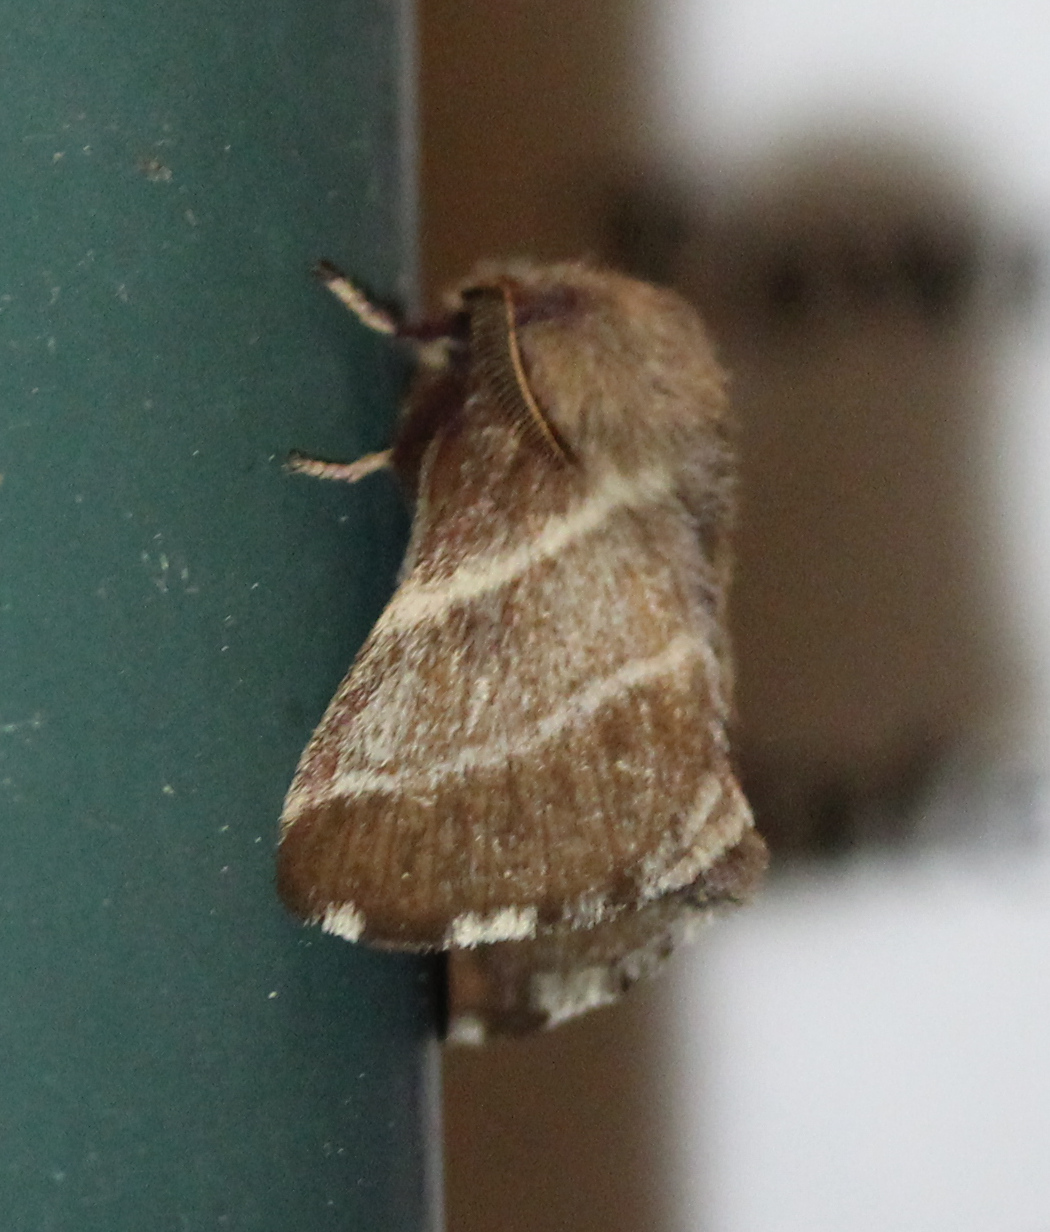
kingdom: Animalia
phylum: Arthropoda
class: Insecta
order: Lepidoptera
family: Lasiocampidae
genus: Malacosoma
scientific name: Malacosoma americana
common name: Eastern tent caterpillar moth
